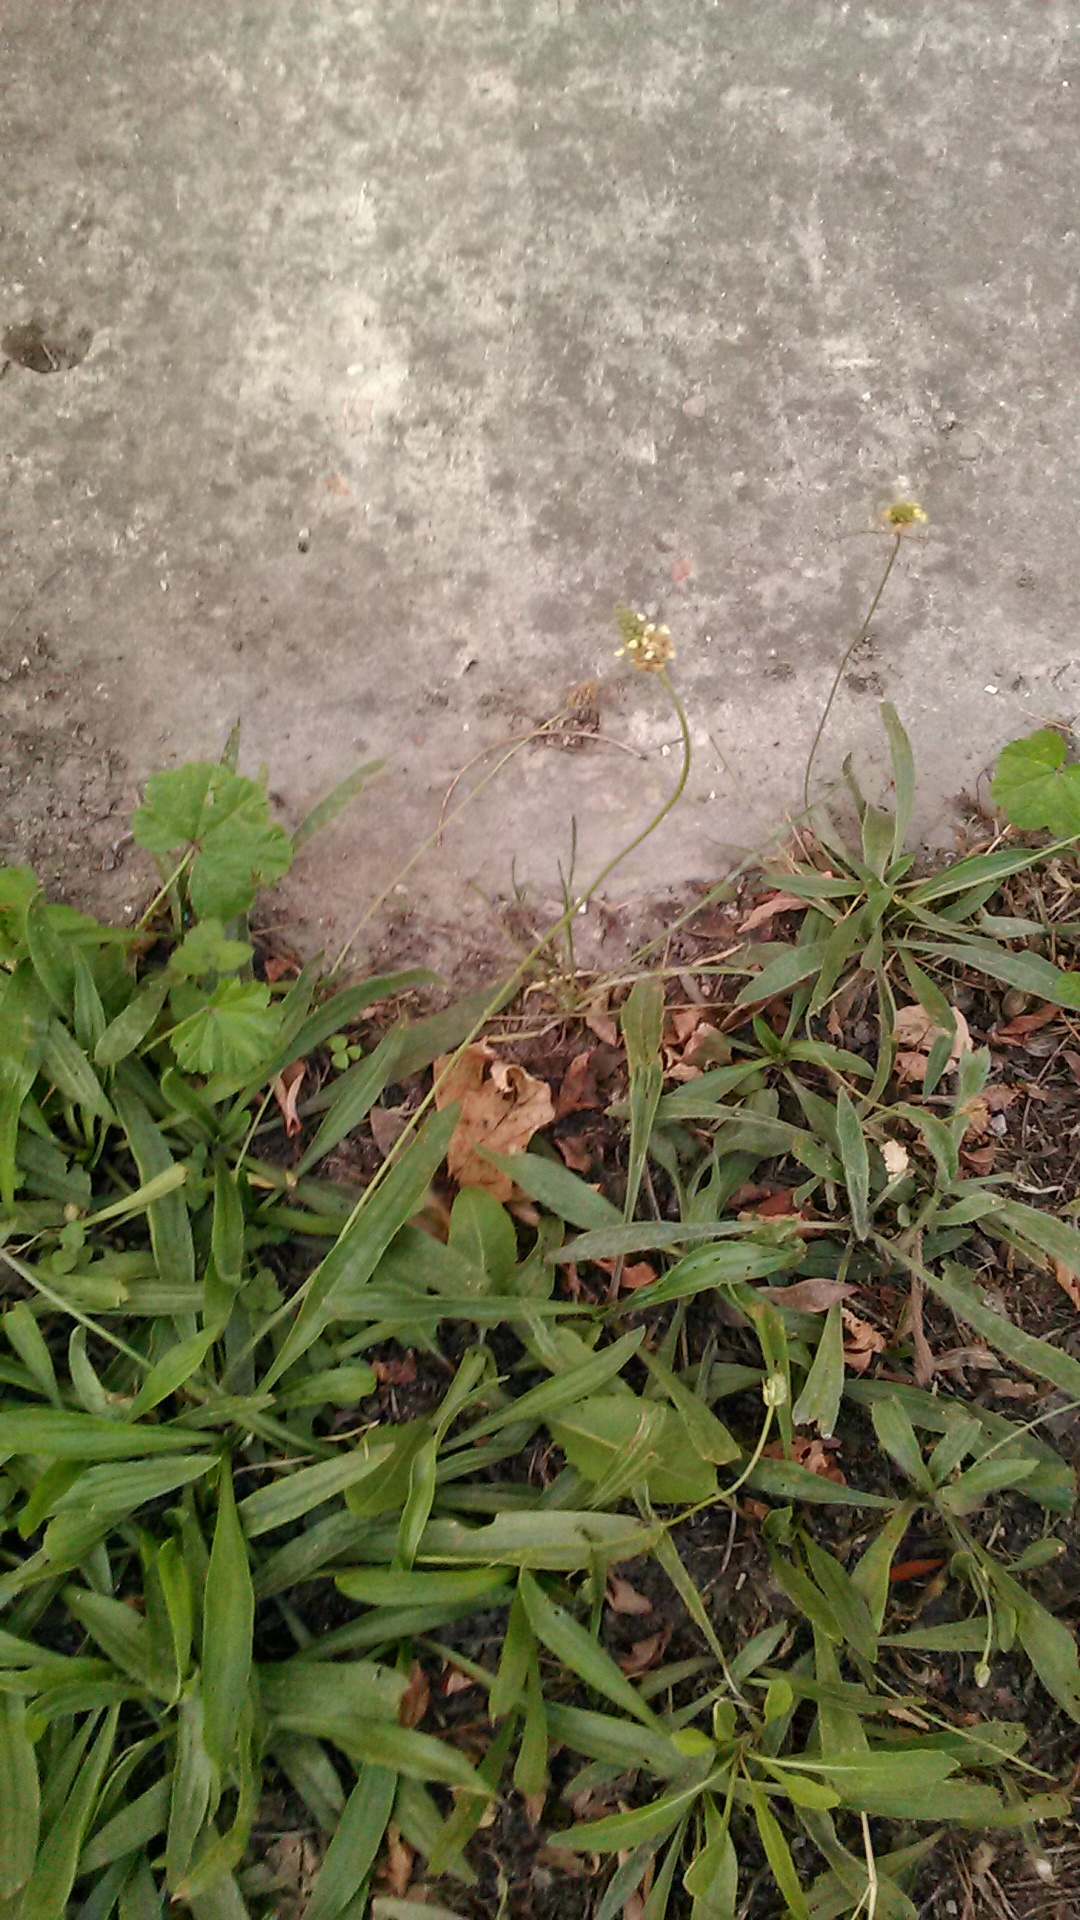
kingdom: Plantae
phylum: Tracheophyta
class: Magnoliopsida
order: Lamiales
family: Plantaginaceae
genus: Plantago
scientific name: Plantago lanceolata
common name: Ribwort plantain
